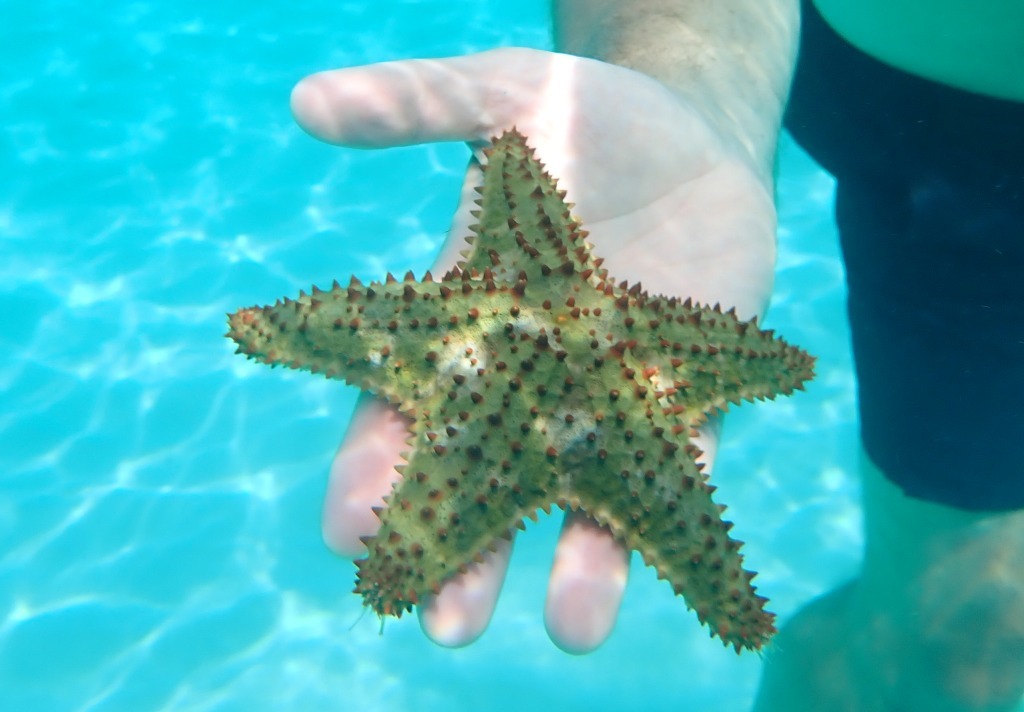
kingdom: Animalia
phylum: Echinodermata
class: Asteroidea
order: Valvatida
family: Oreasteridae
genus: Oreaster
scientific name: Oreaster reticulatus
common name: Cushion sea star
